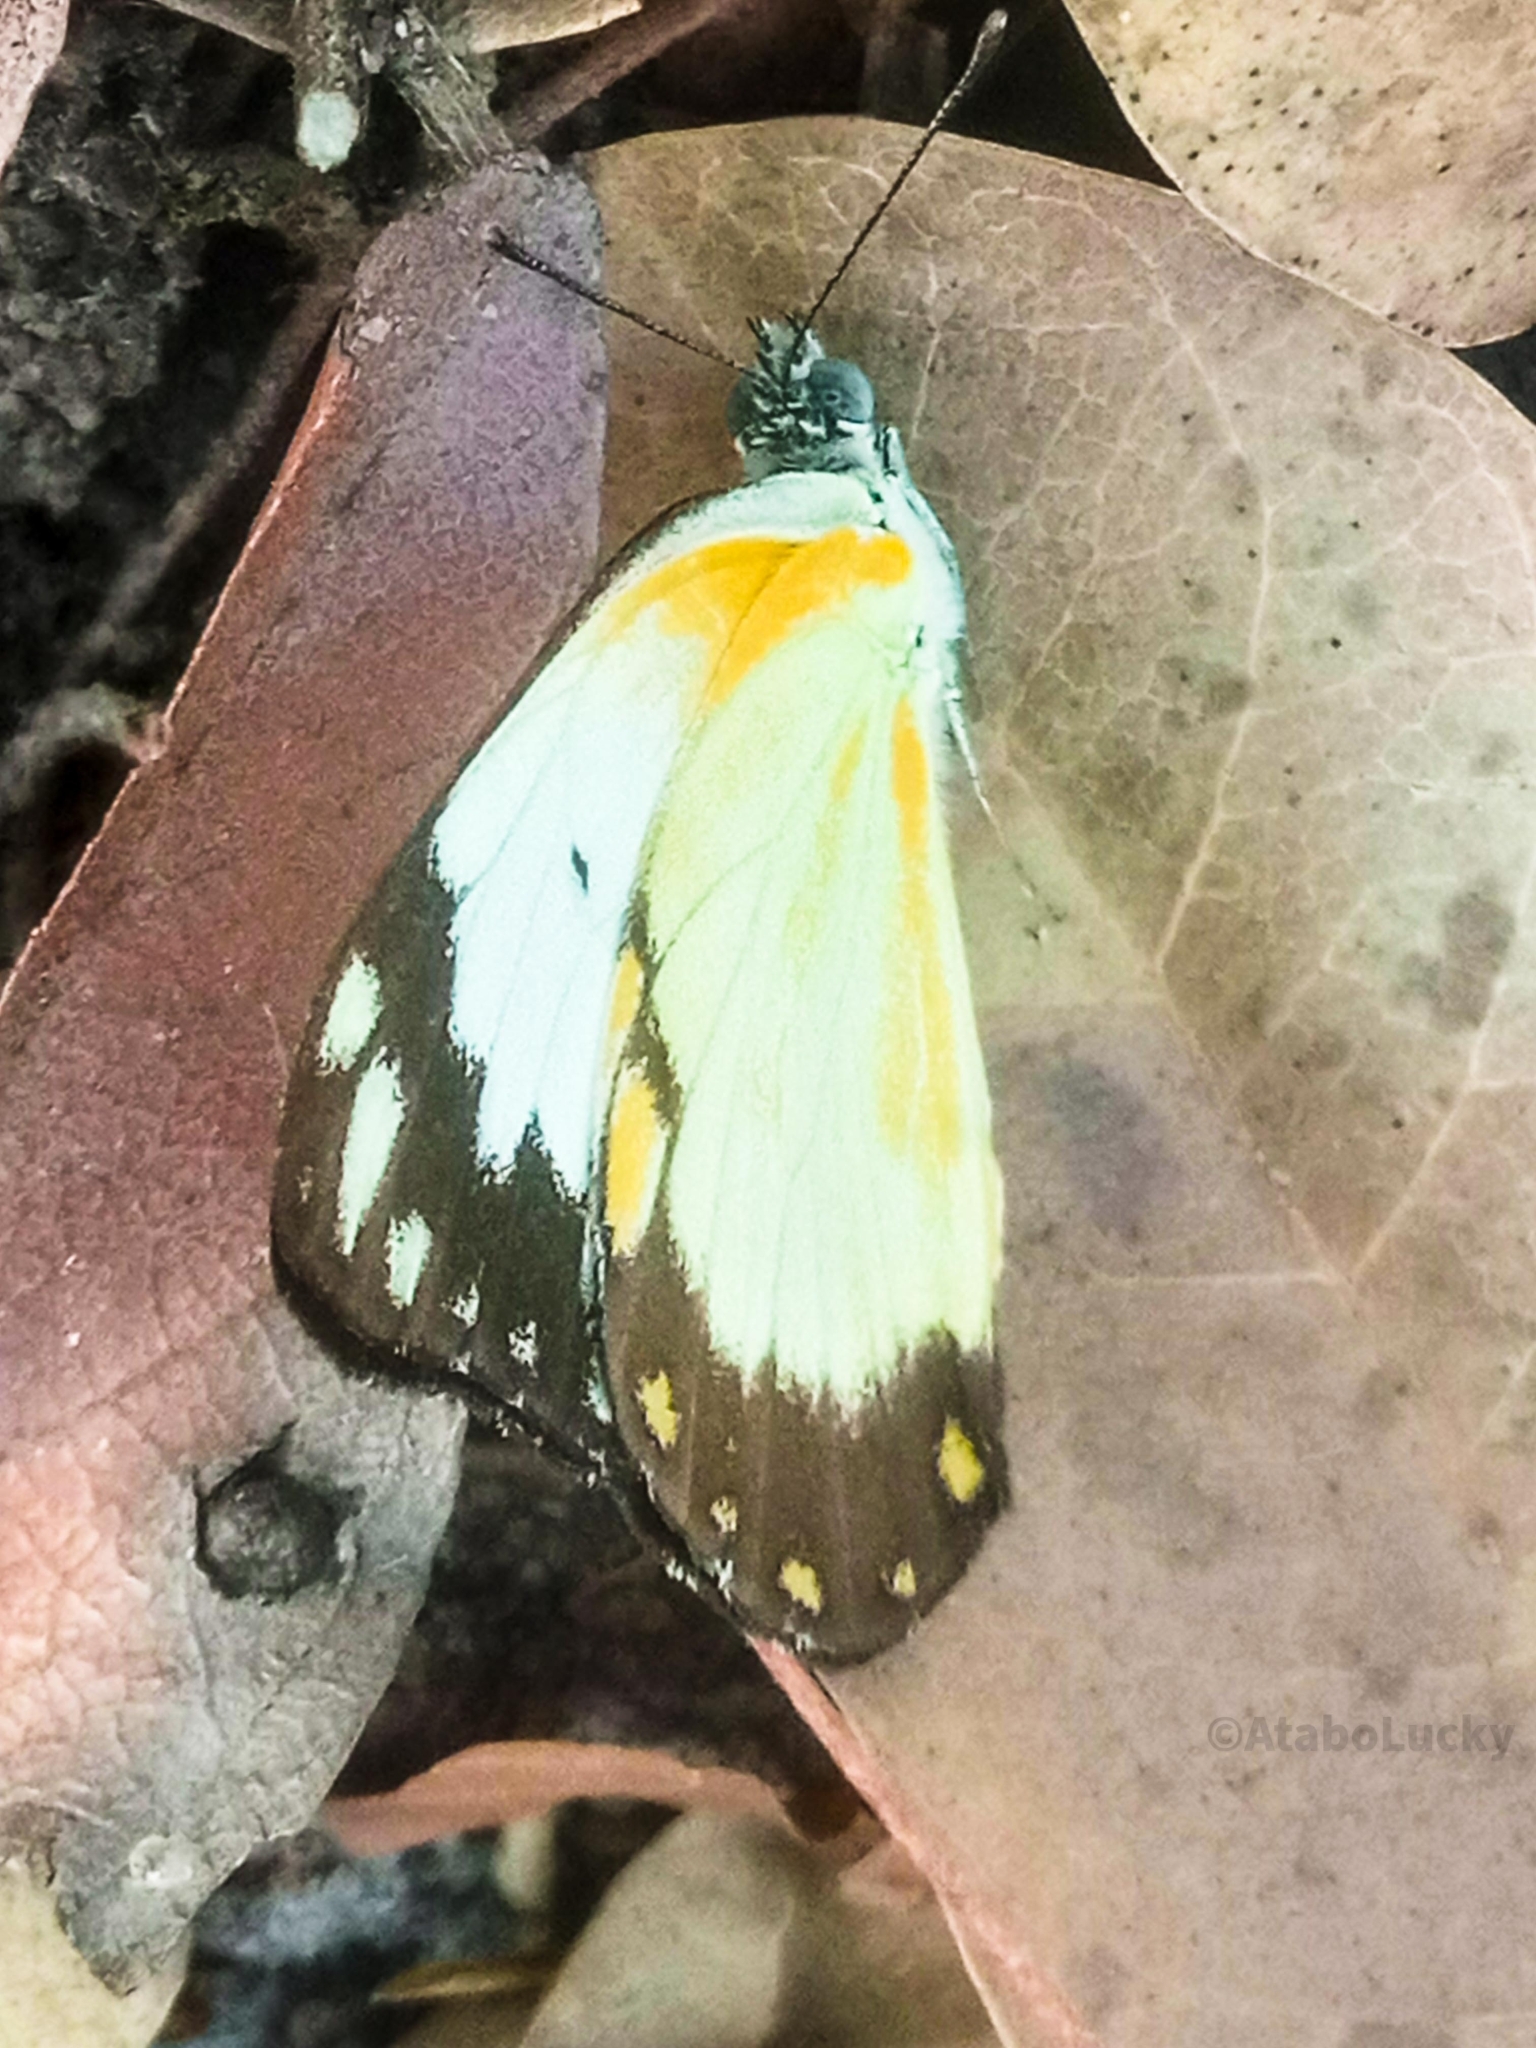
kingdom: Animalia
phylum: Arthropoda
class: Insecta
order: Lepidoptera
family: Pieridae
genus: Belenois
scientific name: Belenois creona
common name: African caper white
